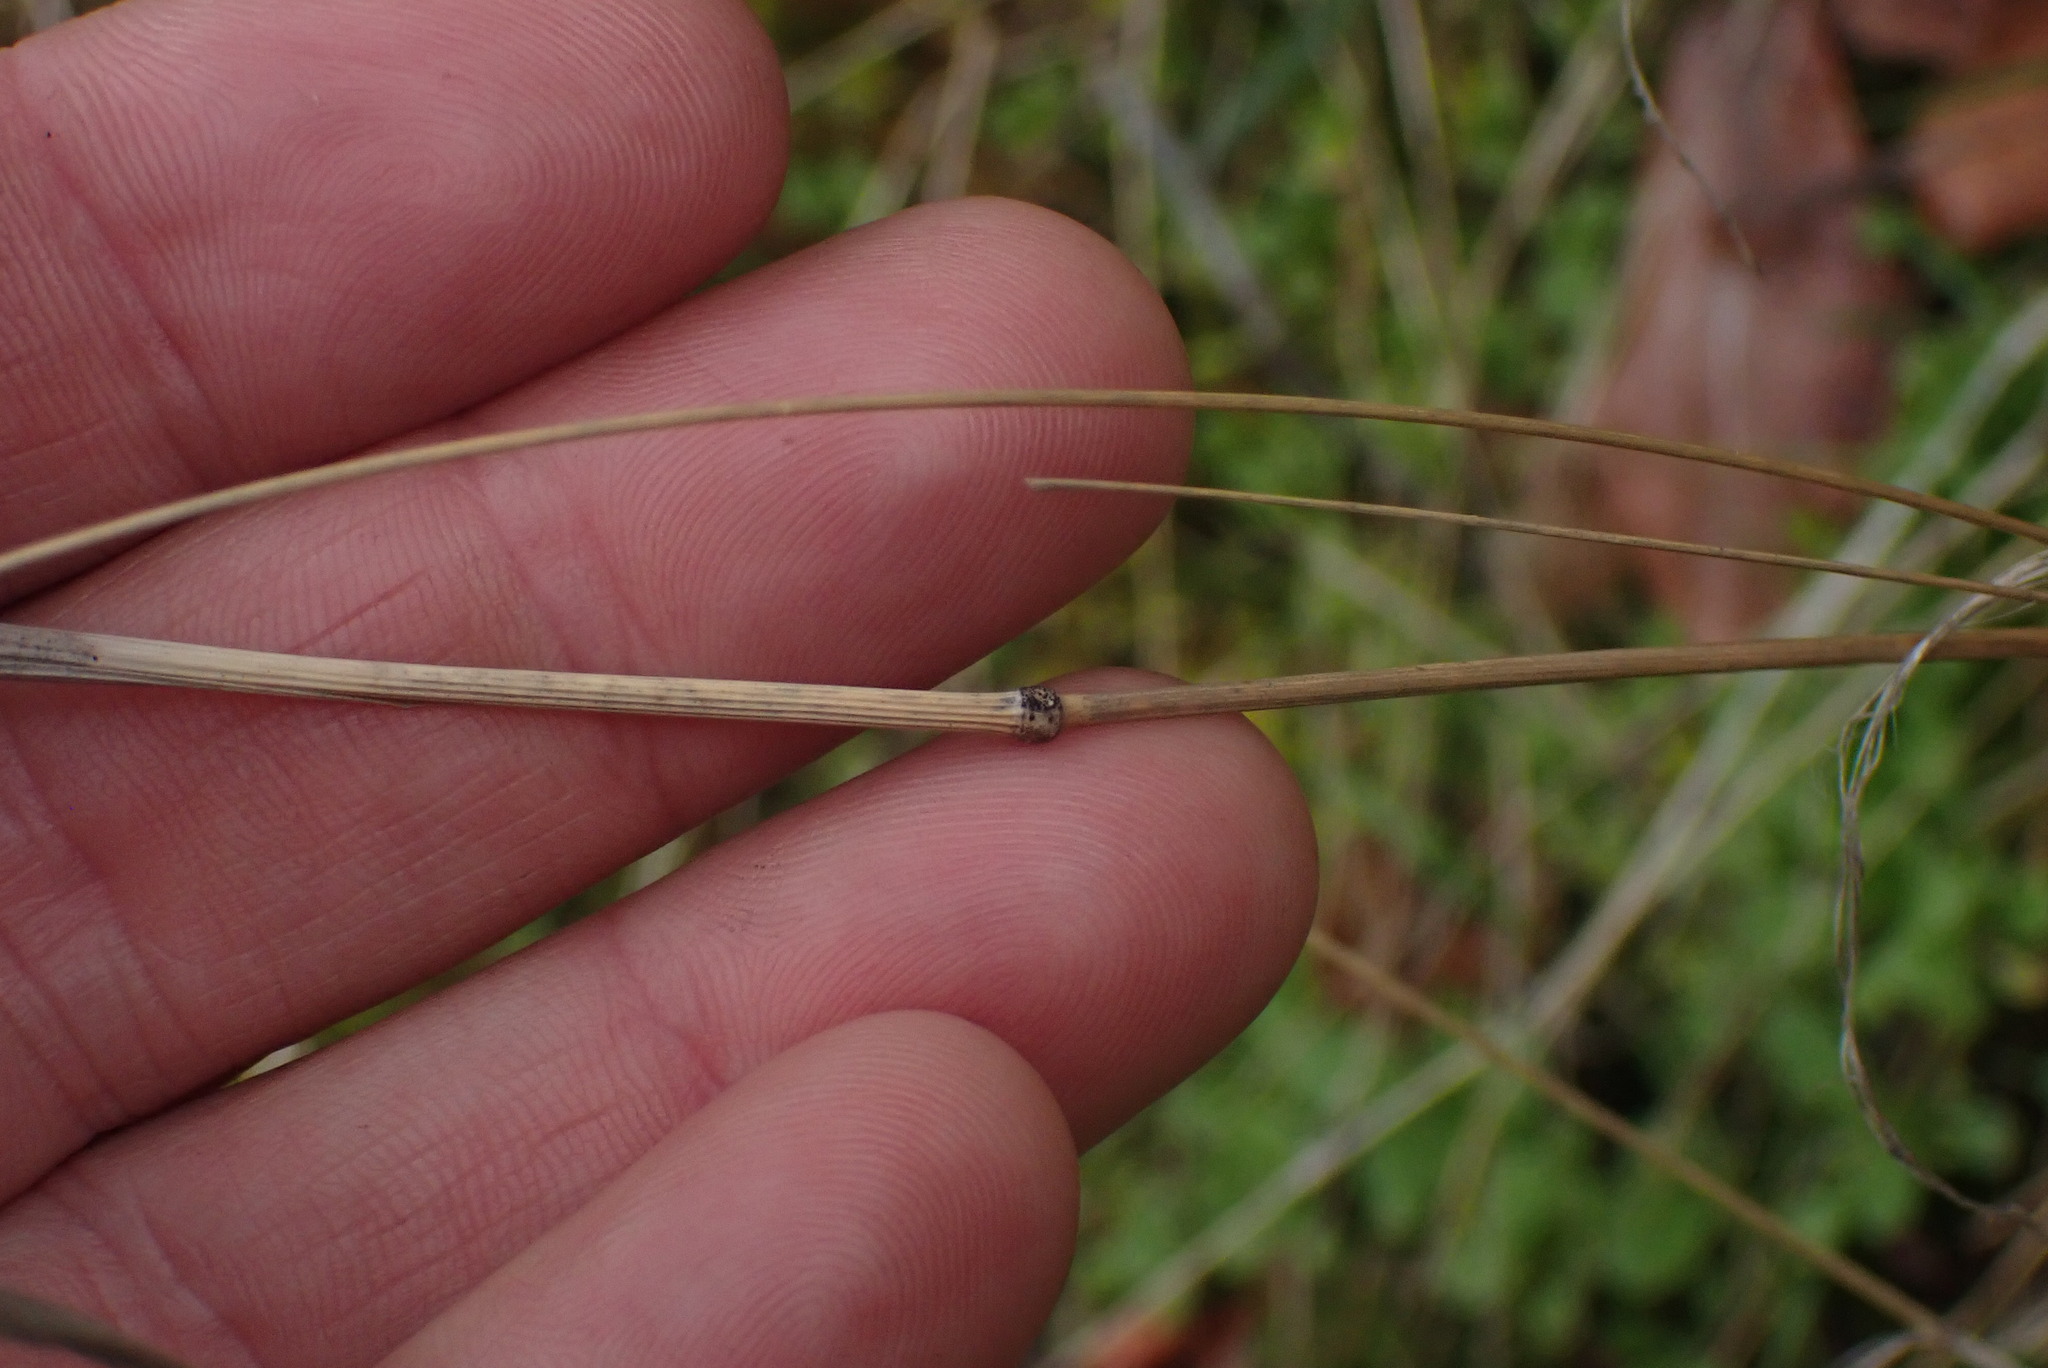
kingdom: Plantae
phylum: Tracheophyta
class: Liliopsida
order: Poales
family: Poaceae
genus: Cynosurus
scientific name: Cynosurus echinatus
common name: Rough dog's-tail
